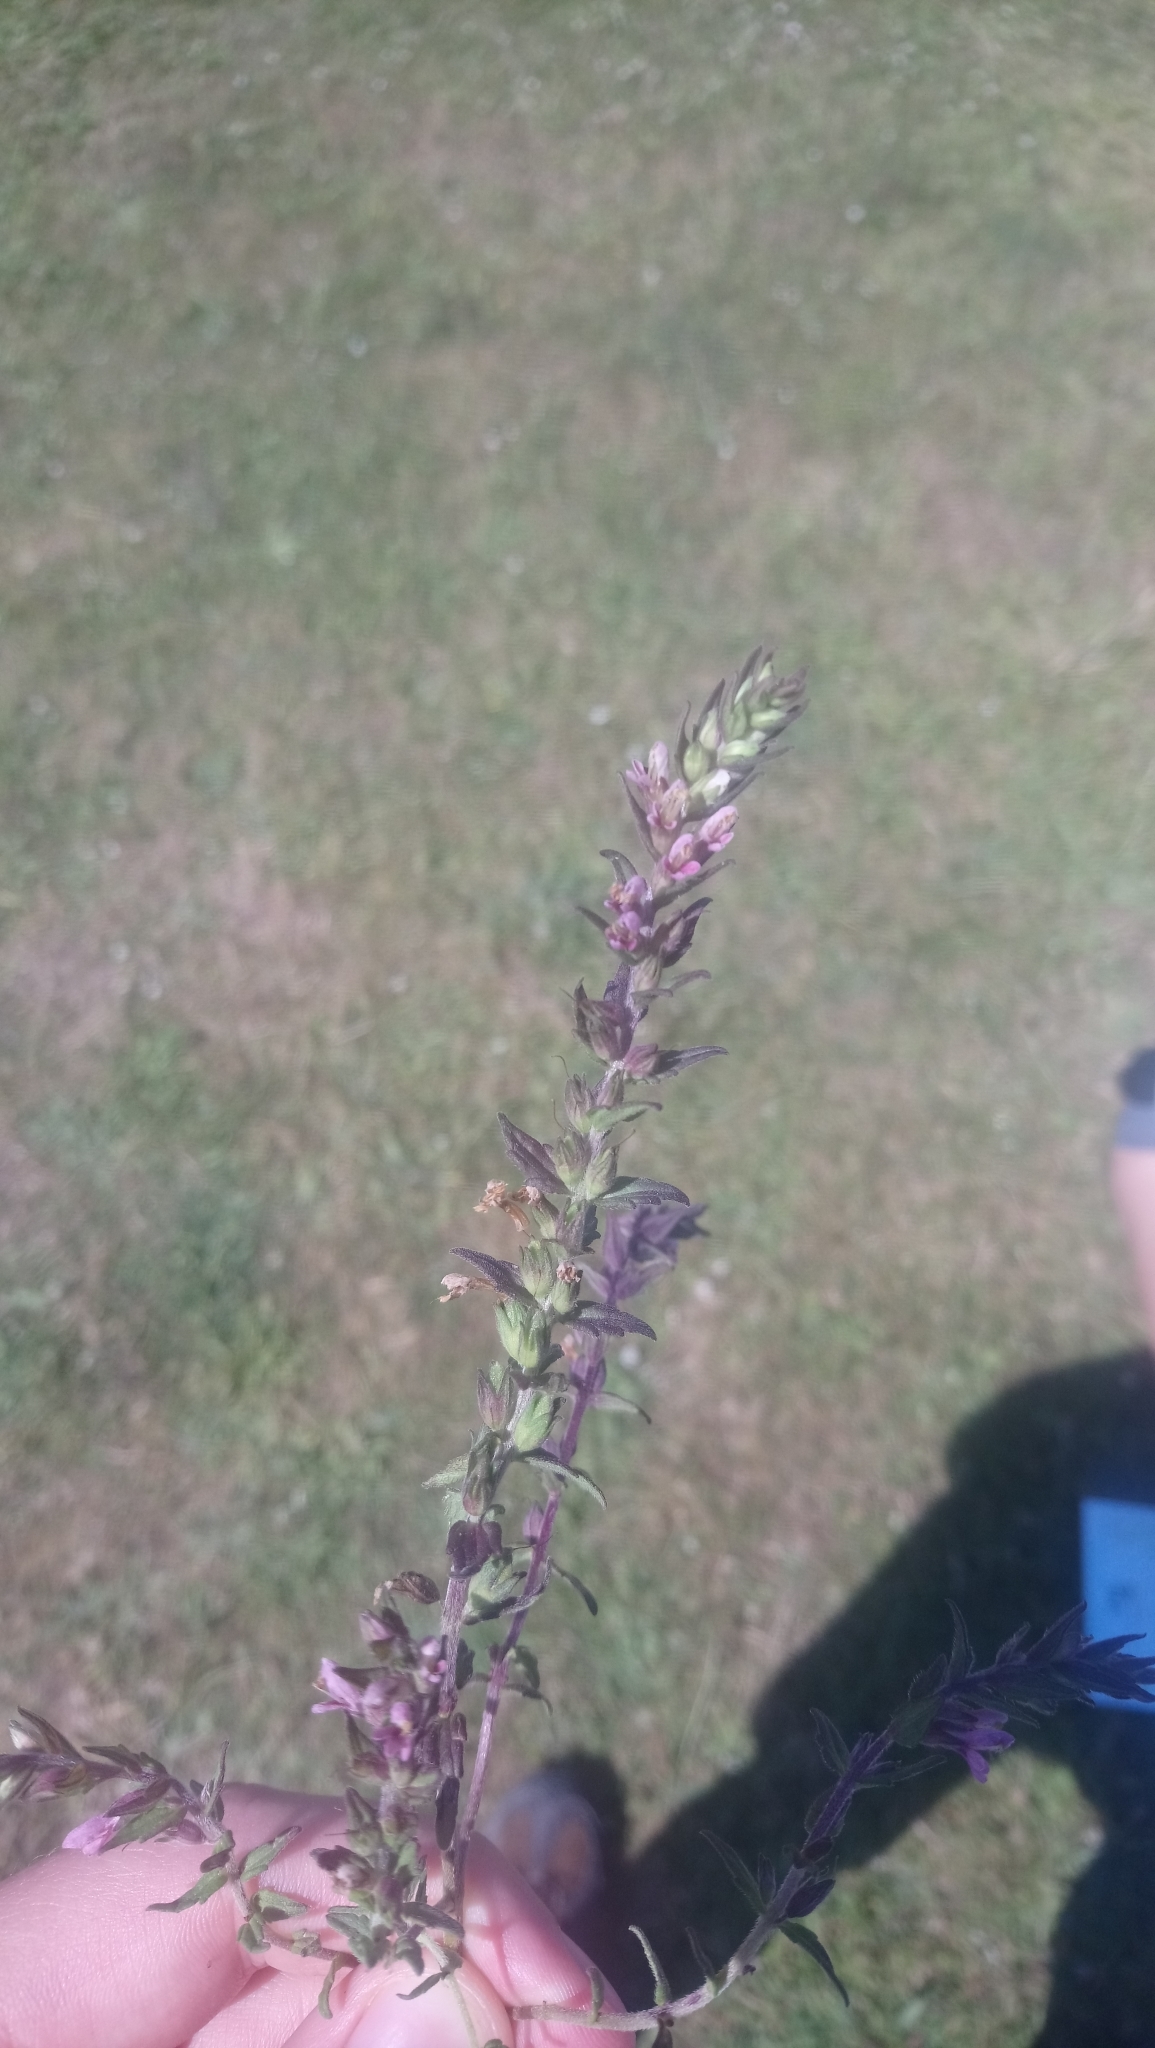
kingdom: Plantae
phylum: Tracheophyta
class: Magnoliopsida
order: Lamiales
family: Orobanchaceae
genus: Odontites
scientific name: Odontites vulgaris
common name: Broomrape
